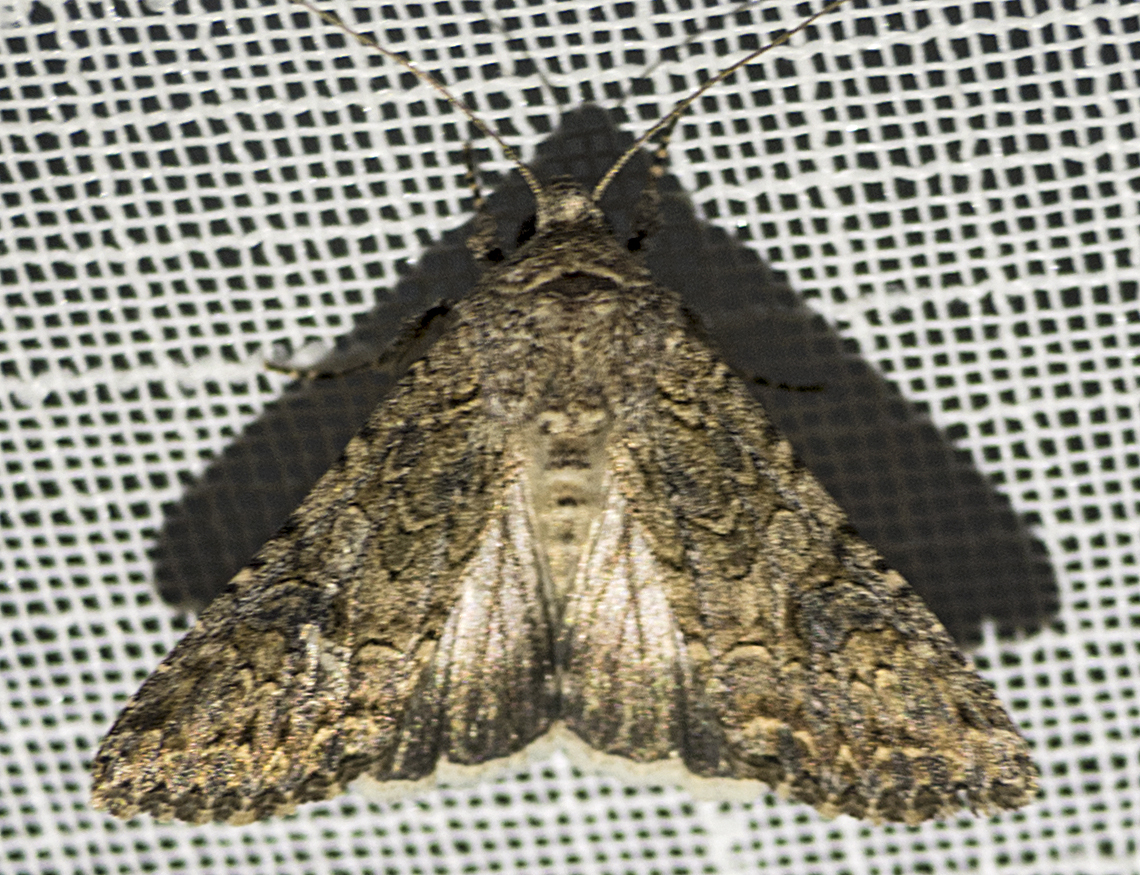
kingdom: Animalia
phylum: Arthropoda
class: Insecta
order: Lepidoptera
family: Noctuidae
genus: Anarta
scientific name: Anarta trifolii
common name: Clover cutworm moth
